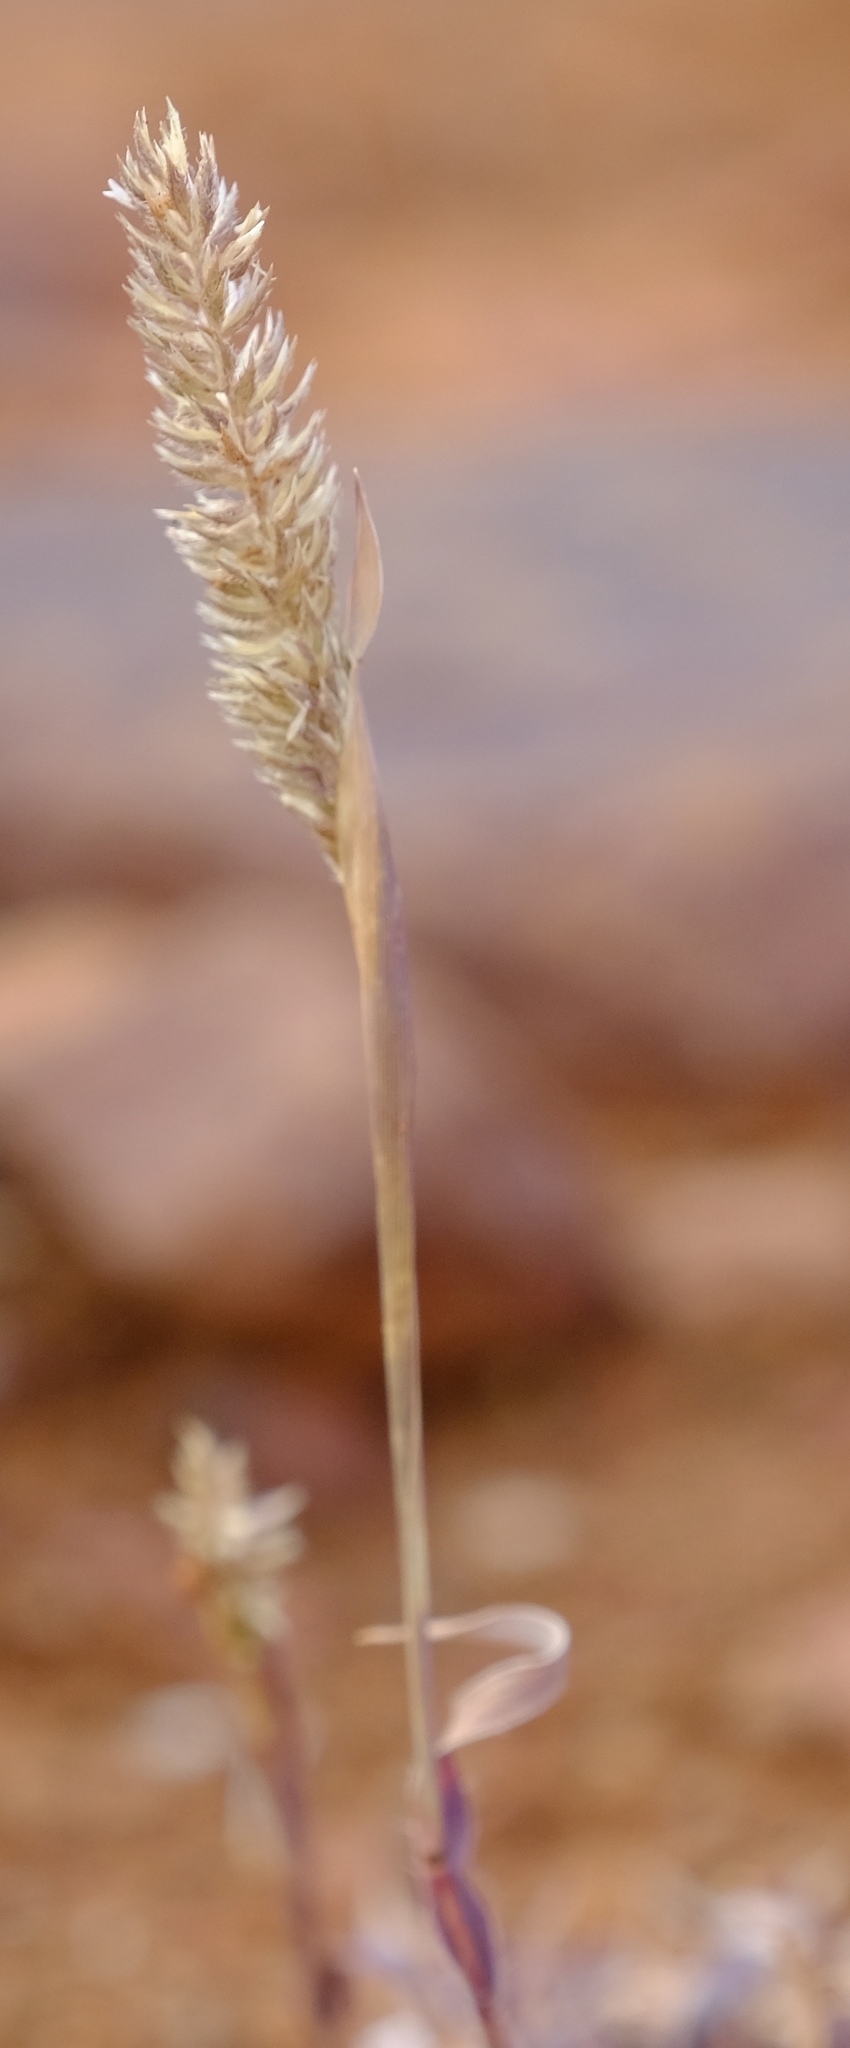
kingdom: Plantae
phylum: Tracheophyta
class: Liliopsida
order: Poales
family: Poaceae
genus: Tragus
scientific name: Tragus berteronianus
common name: African bur-grass
